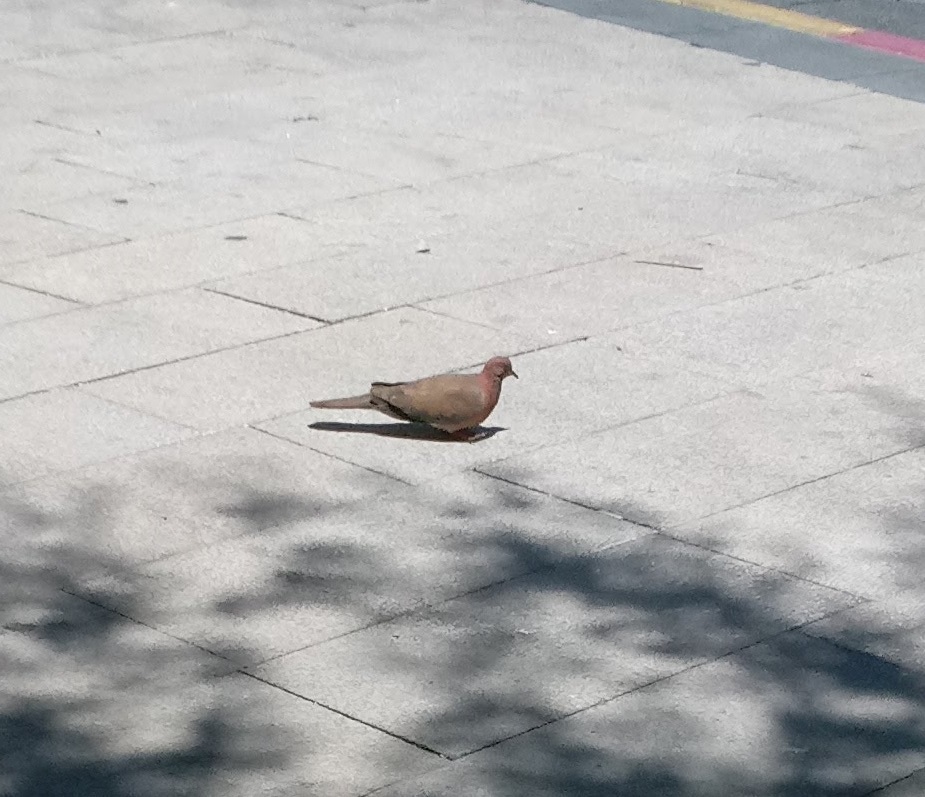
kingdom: Animalia
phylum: Chordata
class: Aves
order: Columbiformes
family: Columbidae
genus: Spilopelia
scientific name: Spilopelia senegalensis
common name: Laughing dove
